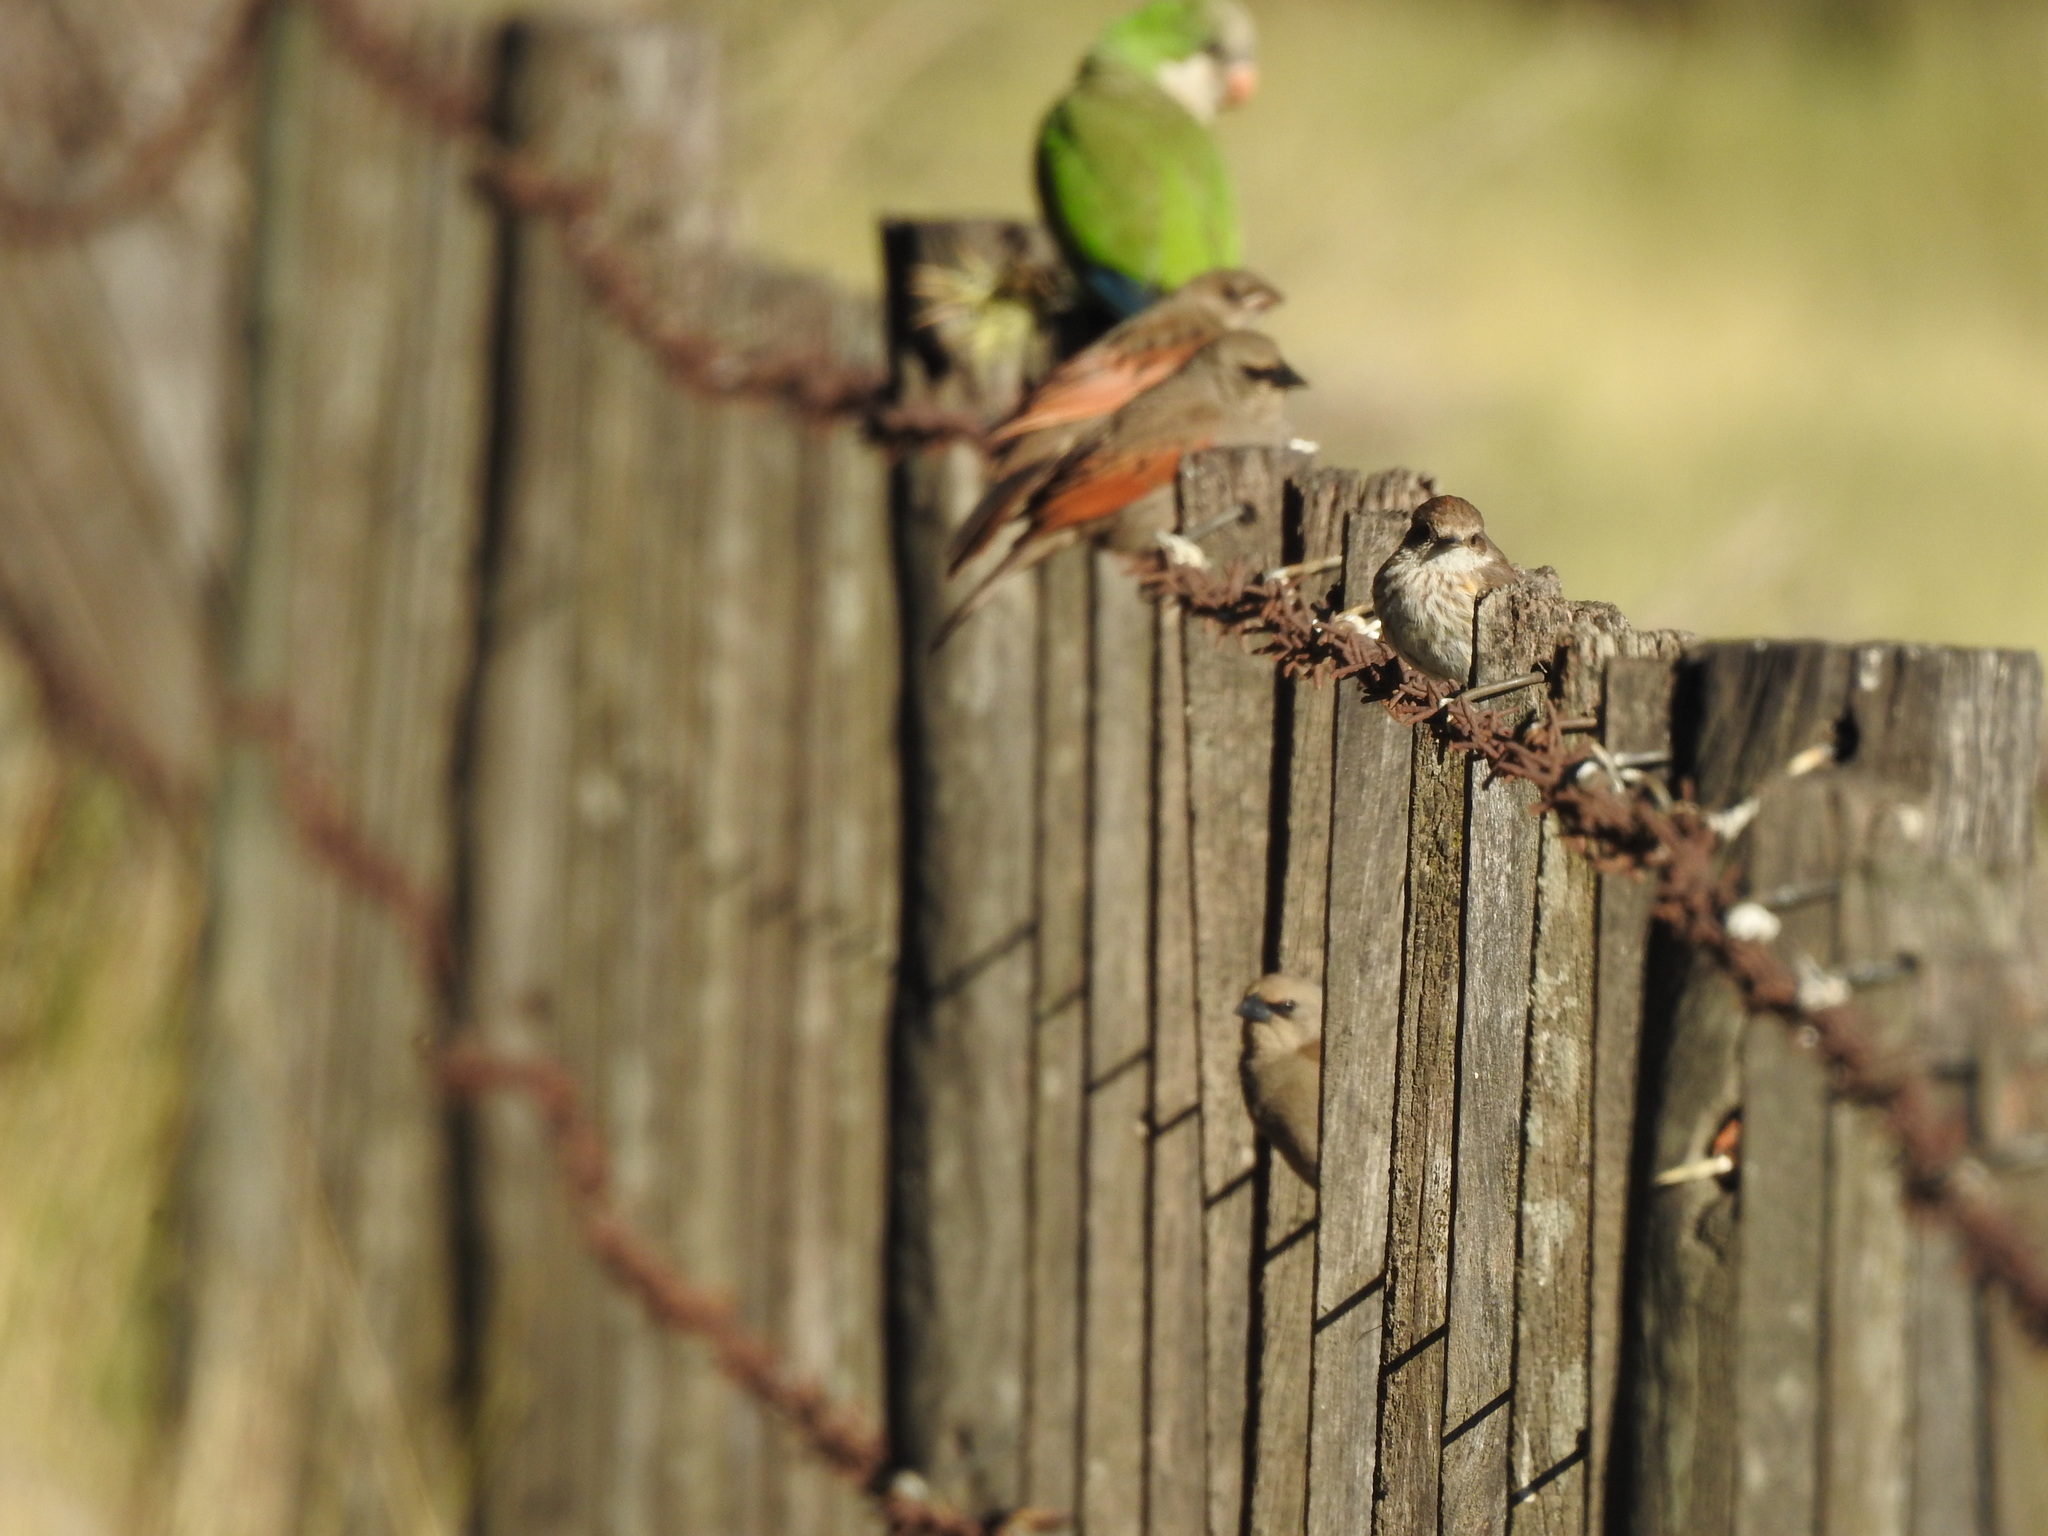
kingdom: Animalia
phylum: Chordata
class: Aves
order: Passeriformes
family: Tyrannidae
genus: Pyrocephalus
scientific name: Pyrocephalus rubinus
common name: Vermilion flycatcher
